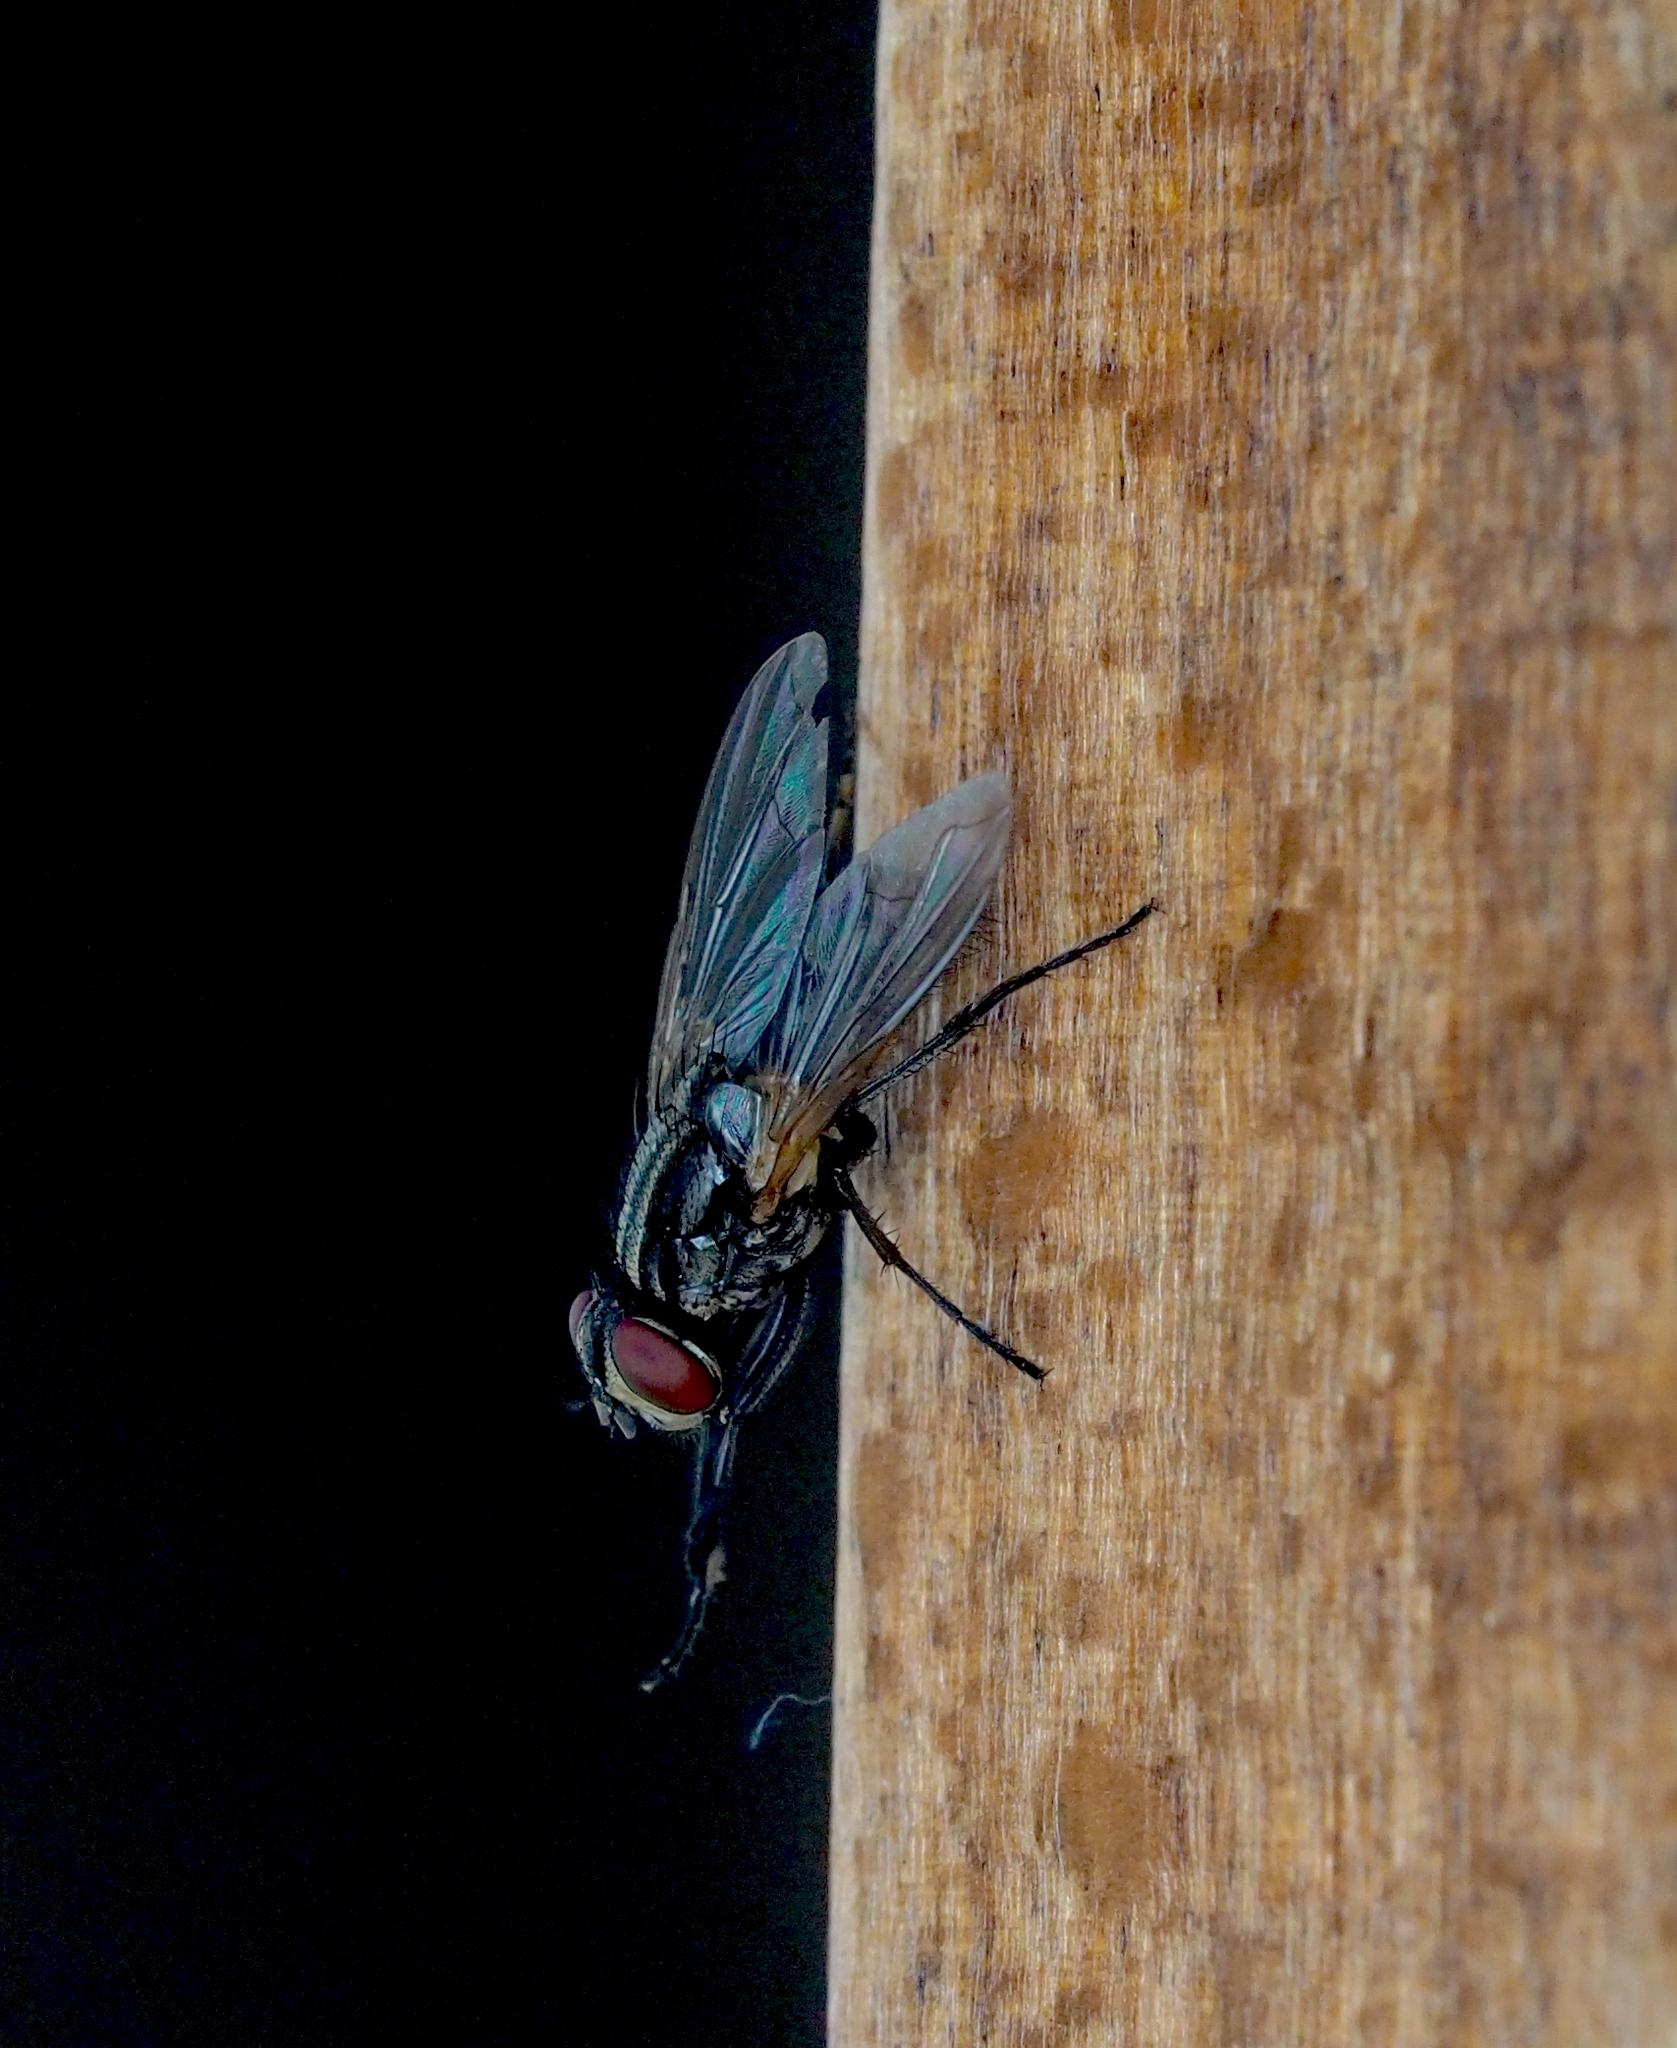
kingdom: Animalia
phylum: Arthropoda
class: Insecta
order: Diptera
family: Muscidae
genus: Musca
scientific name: Musca domestica
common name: House fly
